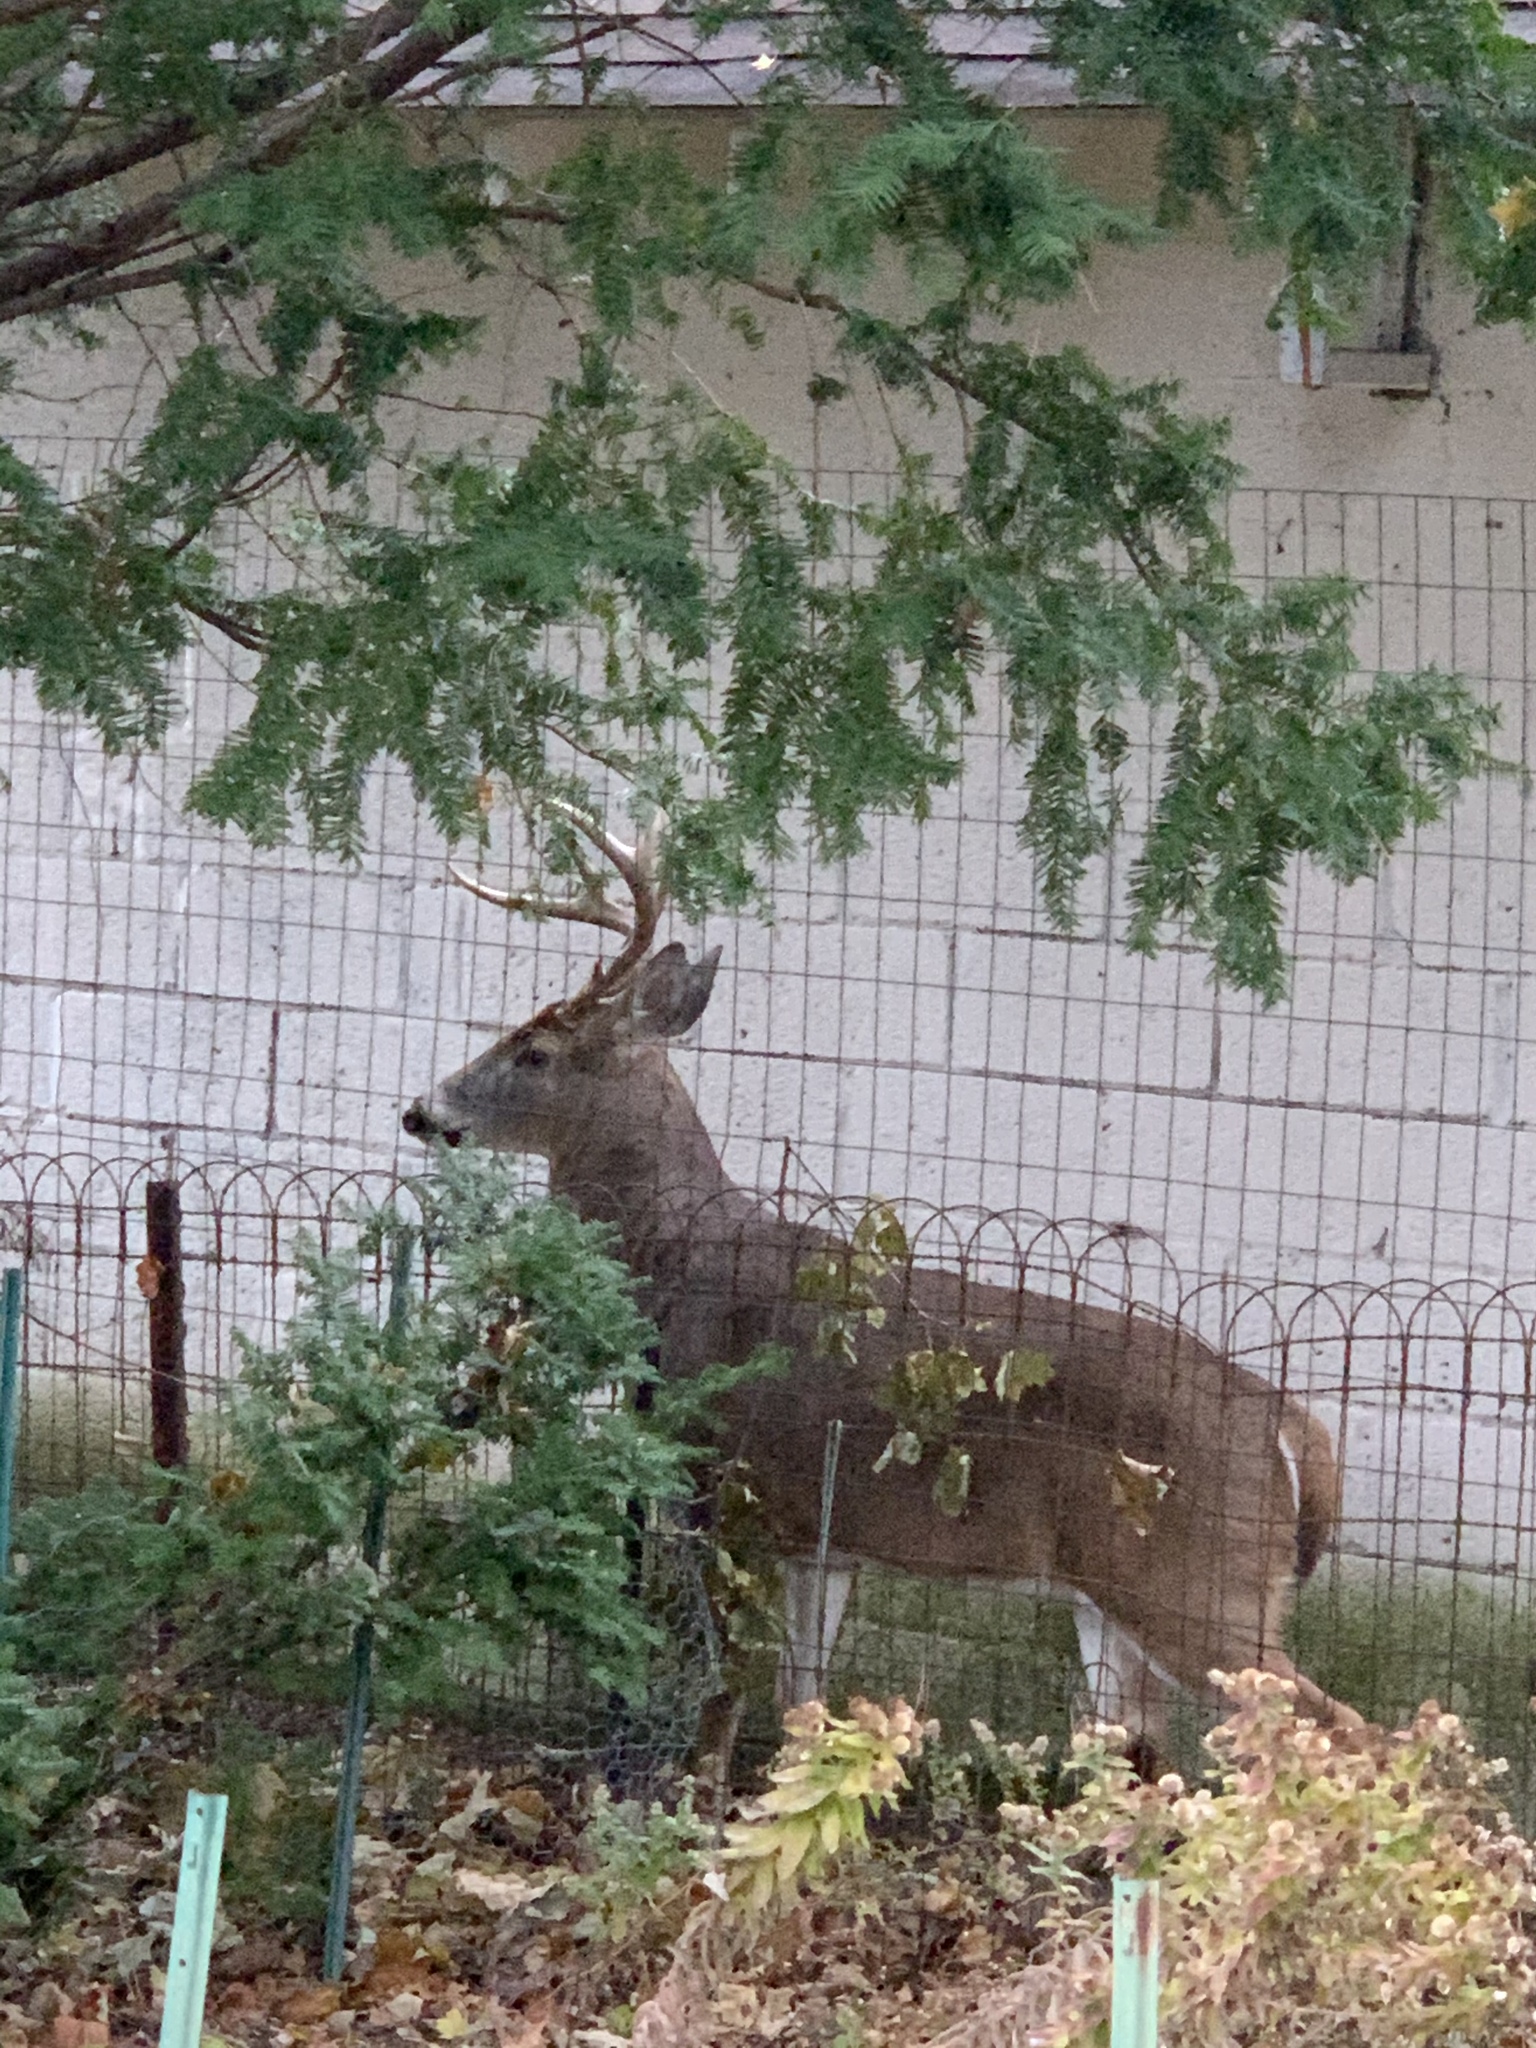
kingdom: Animalia
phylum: Chordata
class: Mammalia
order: Artiodactyla
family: Cervidae
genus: Odocoileus
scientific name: Odocoileus virginianus
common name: White-tailed deer
